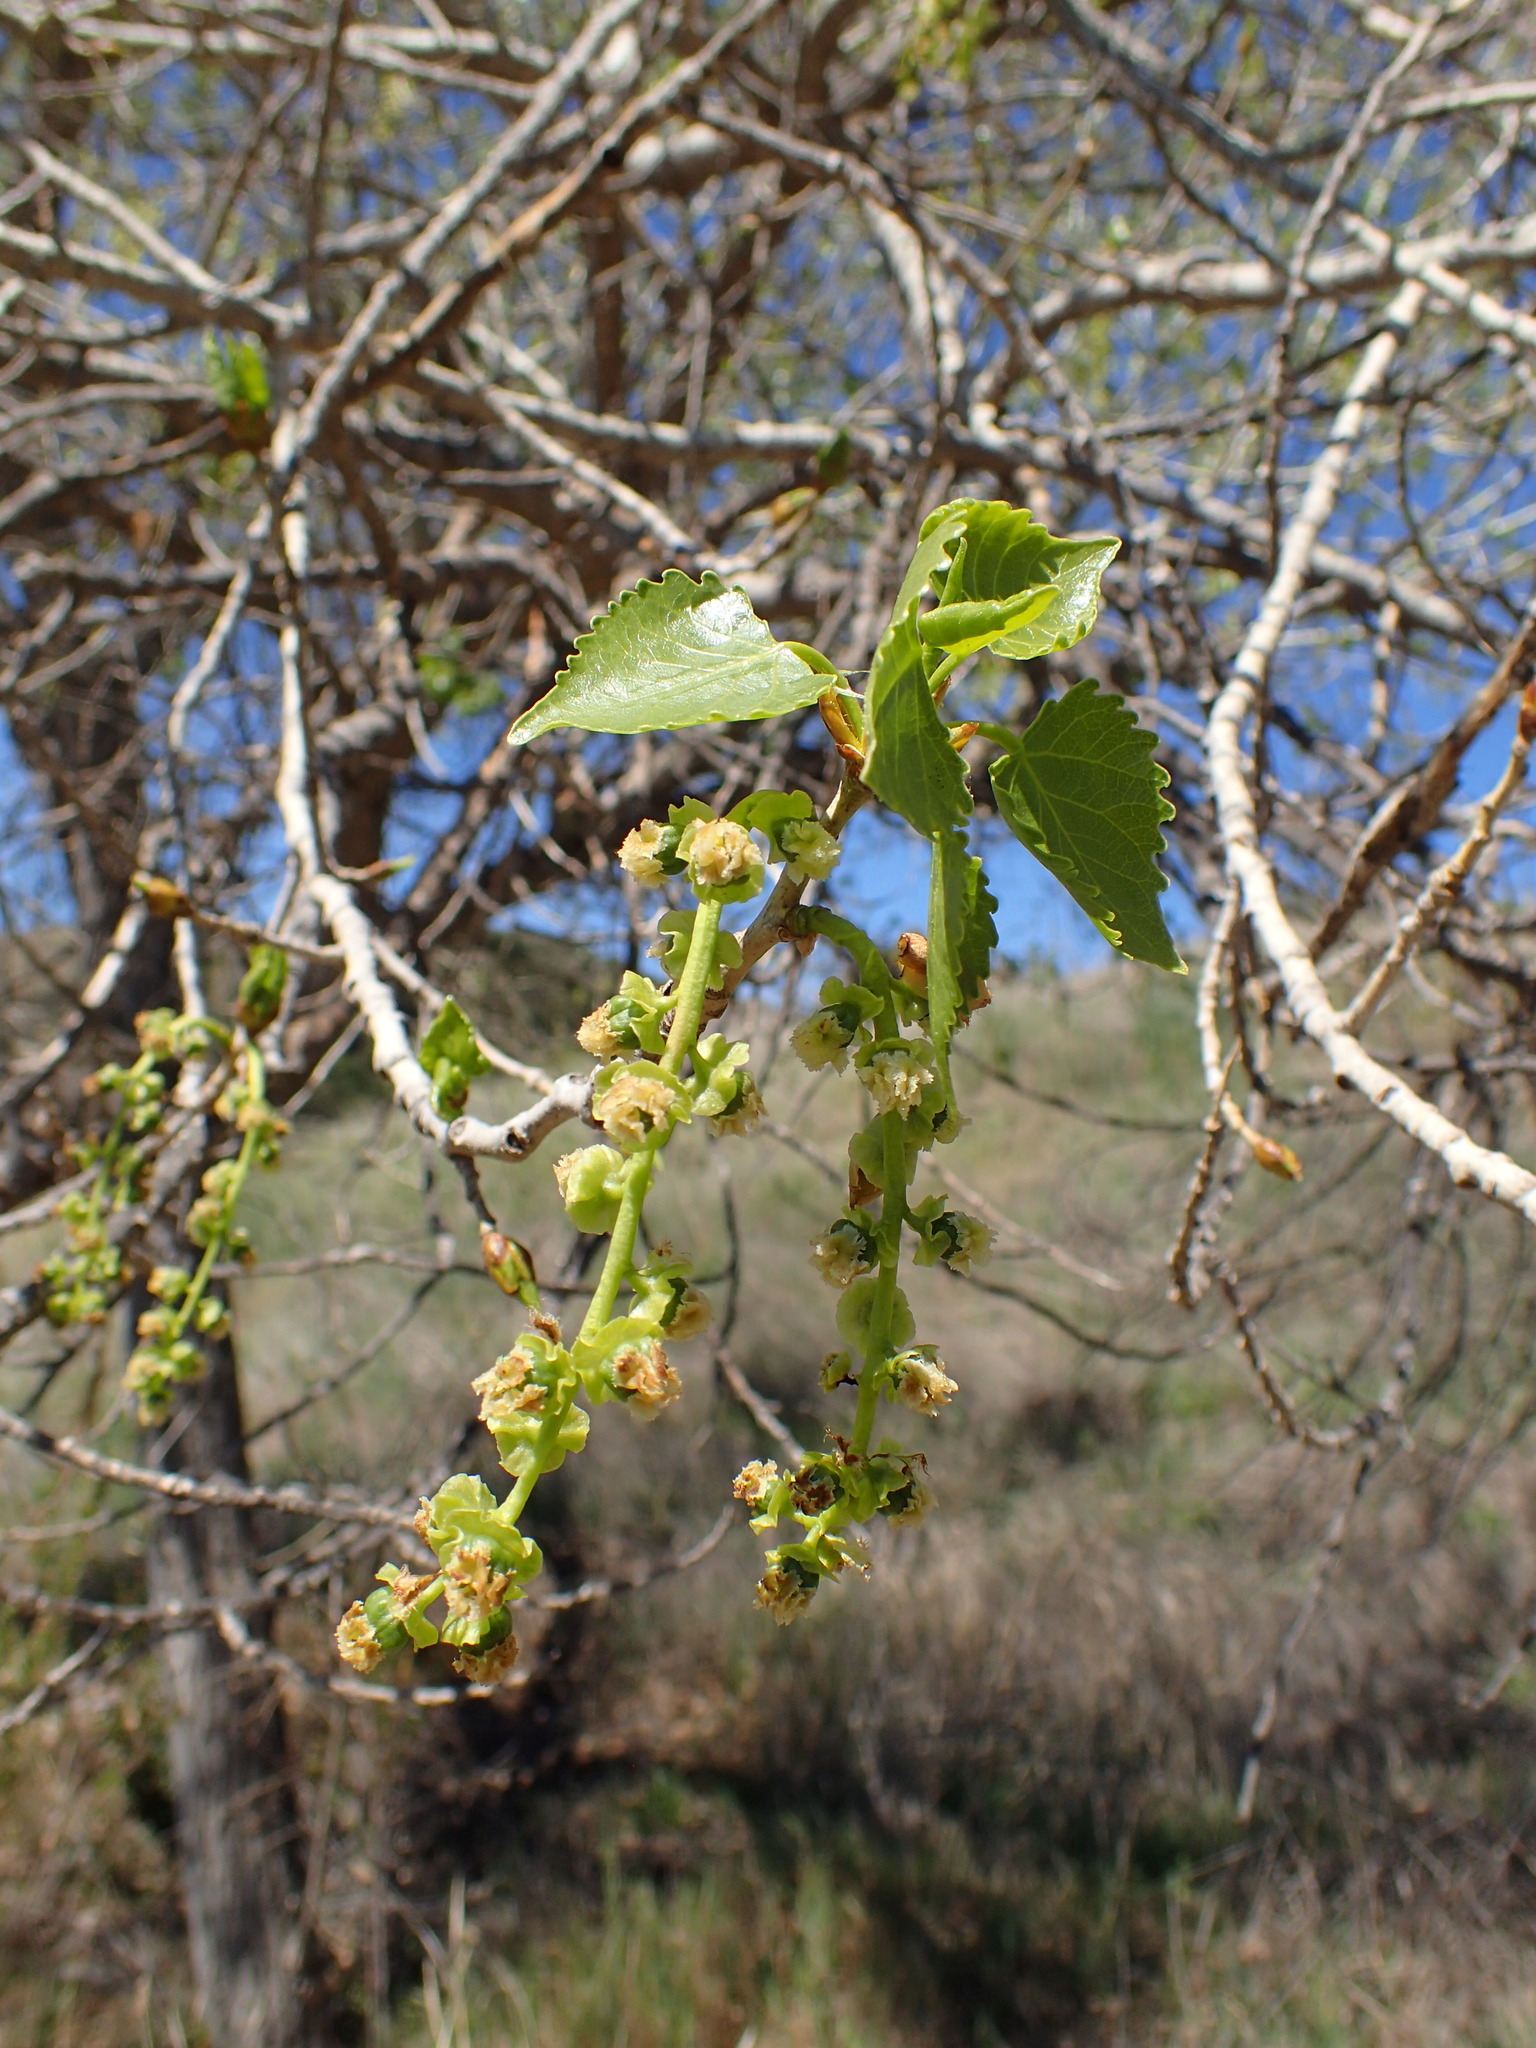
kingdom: Plantae
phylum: Tracheophyta
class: Magnoliopsida
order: Malpighiales
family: Salicaceae
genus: Populus
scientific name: Populus fremontii
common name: Fremont's cottonwood
